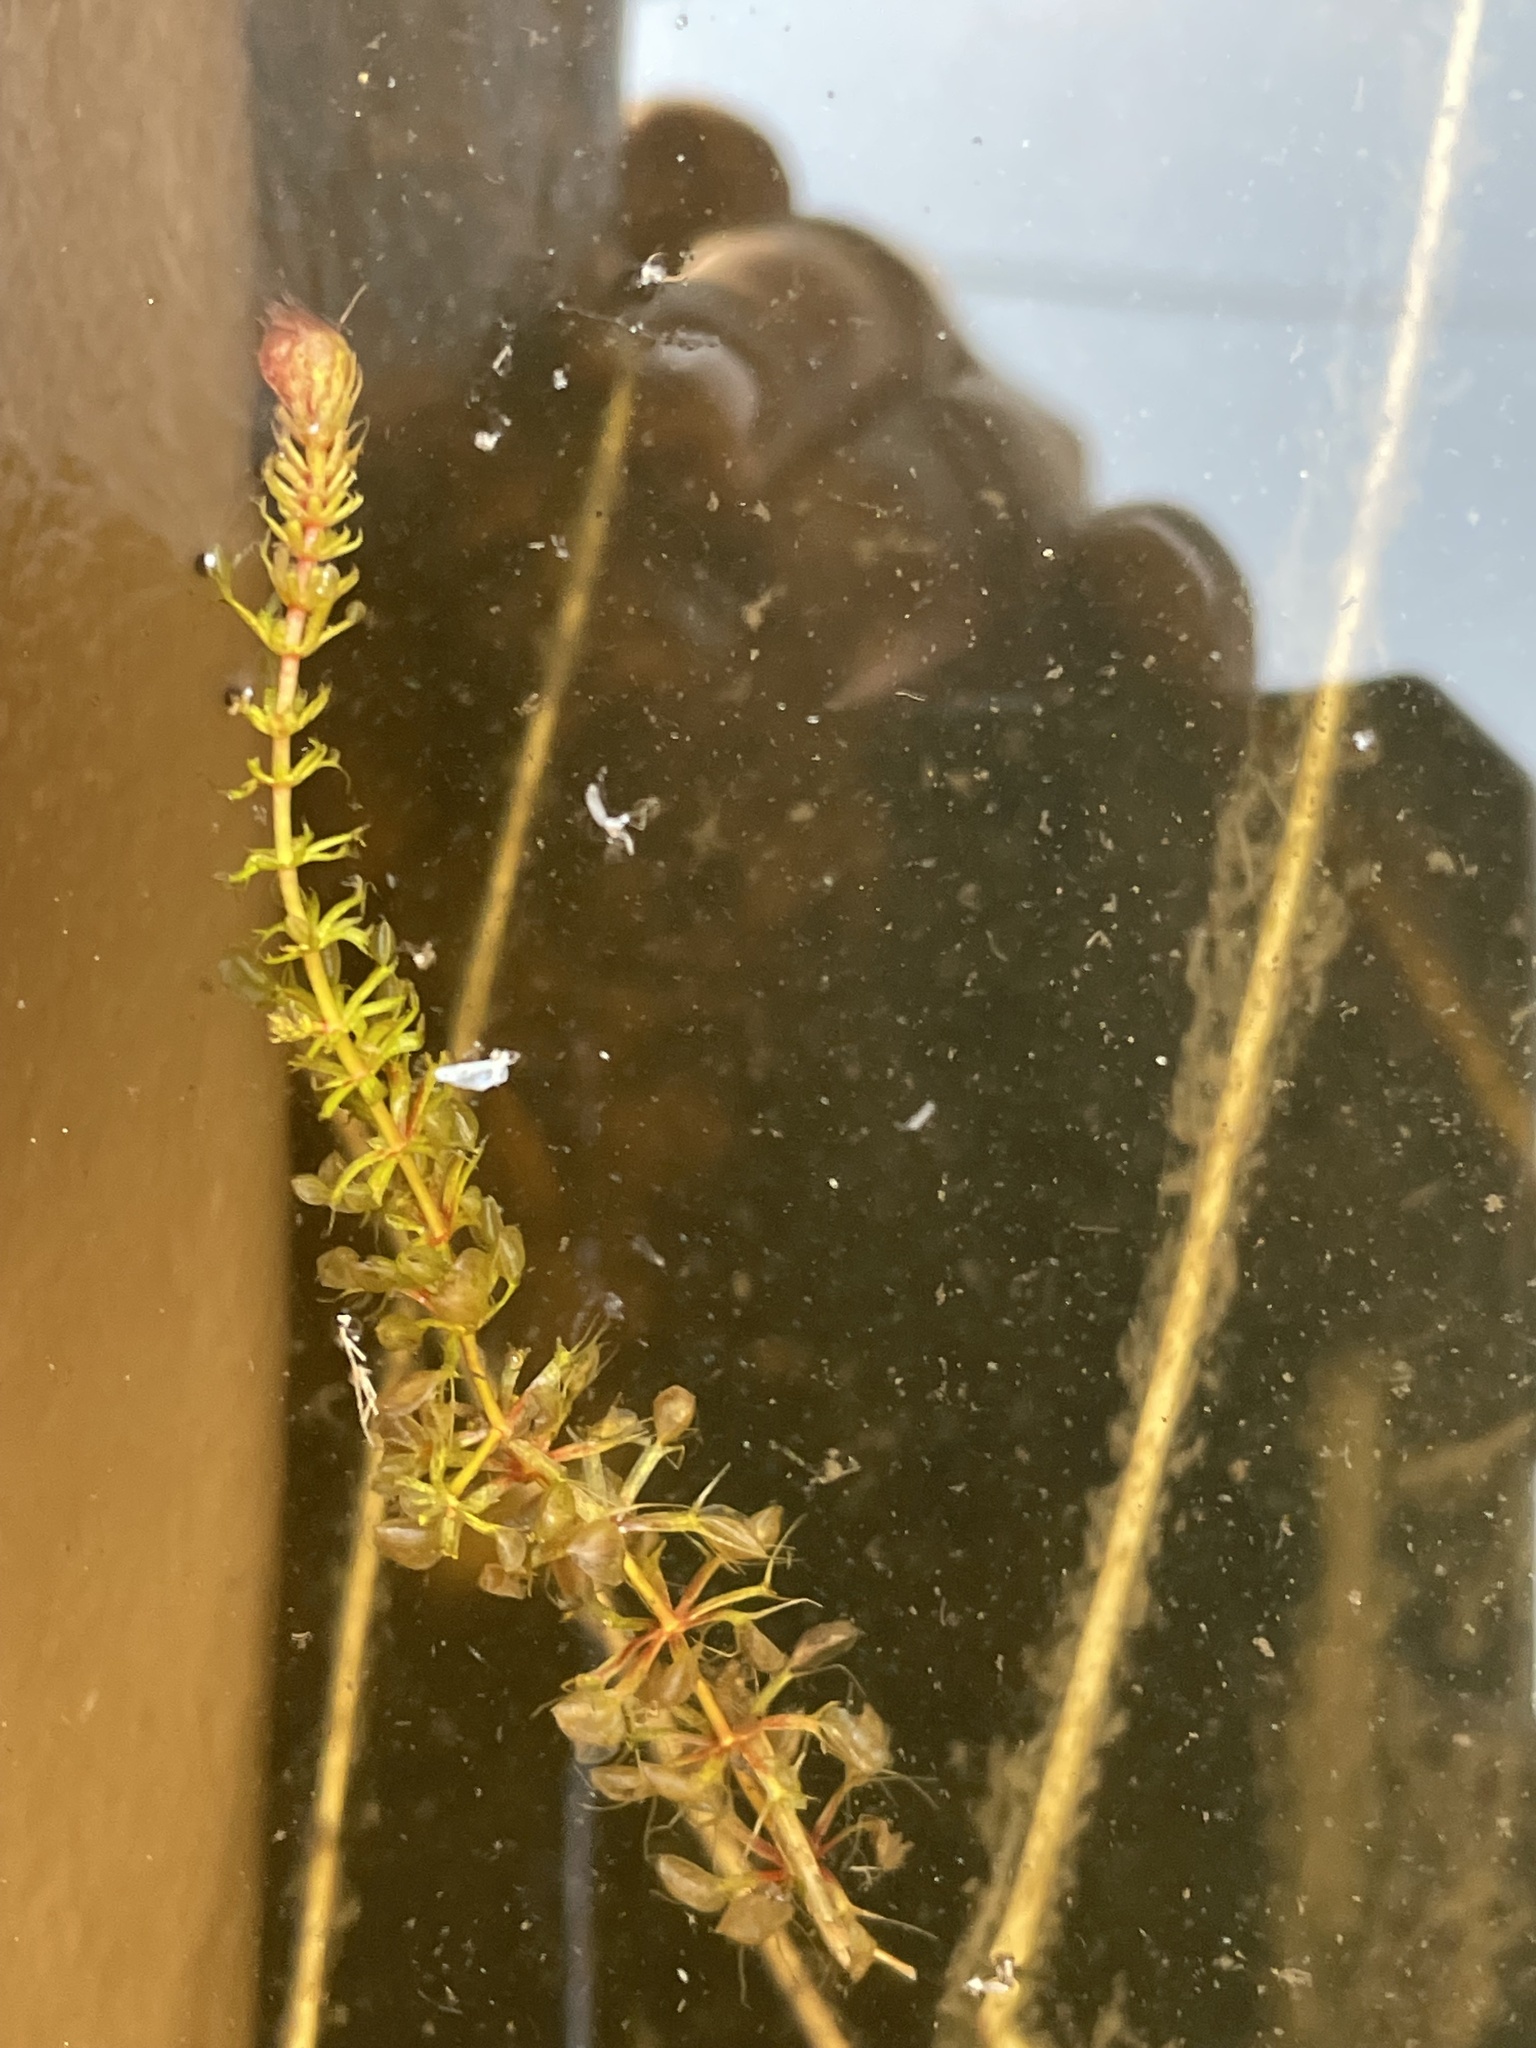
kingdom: Plantae
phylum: Tracheophyta
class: Magnoliopsida
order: Caryophyllales
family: Droseraceae
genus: Aldrovanda
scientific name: Aldrovanda vesiculosa
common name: Waterwheel plant
